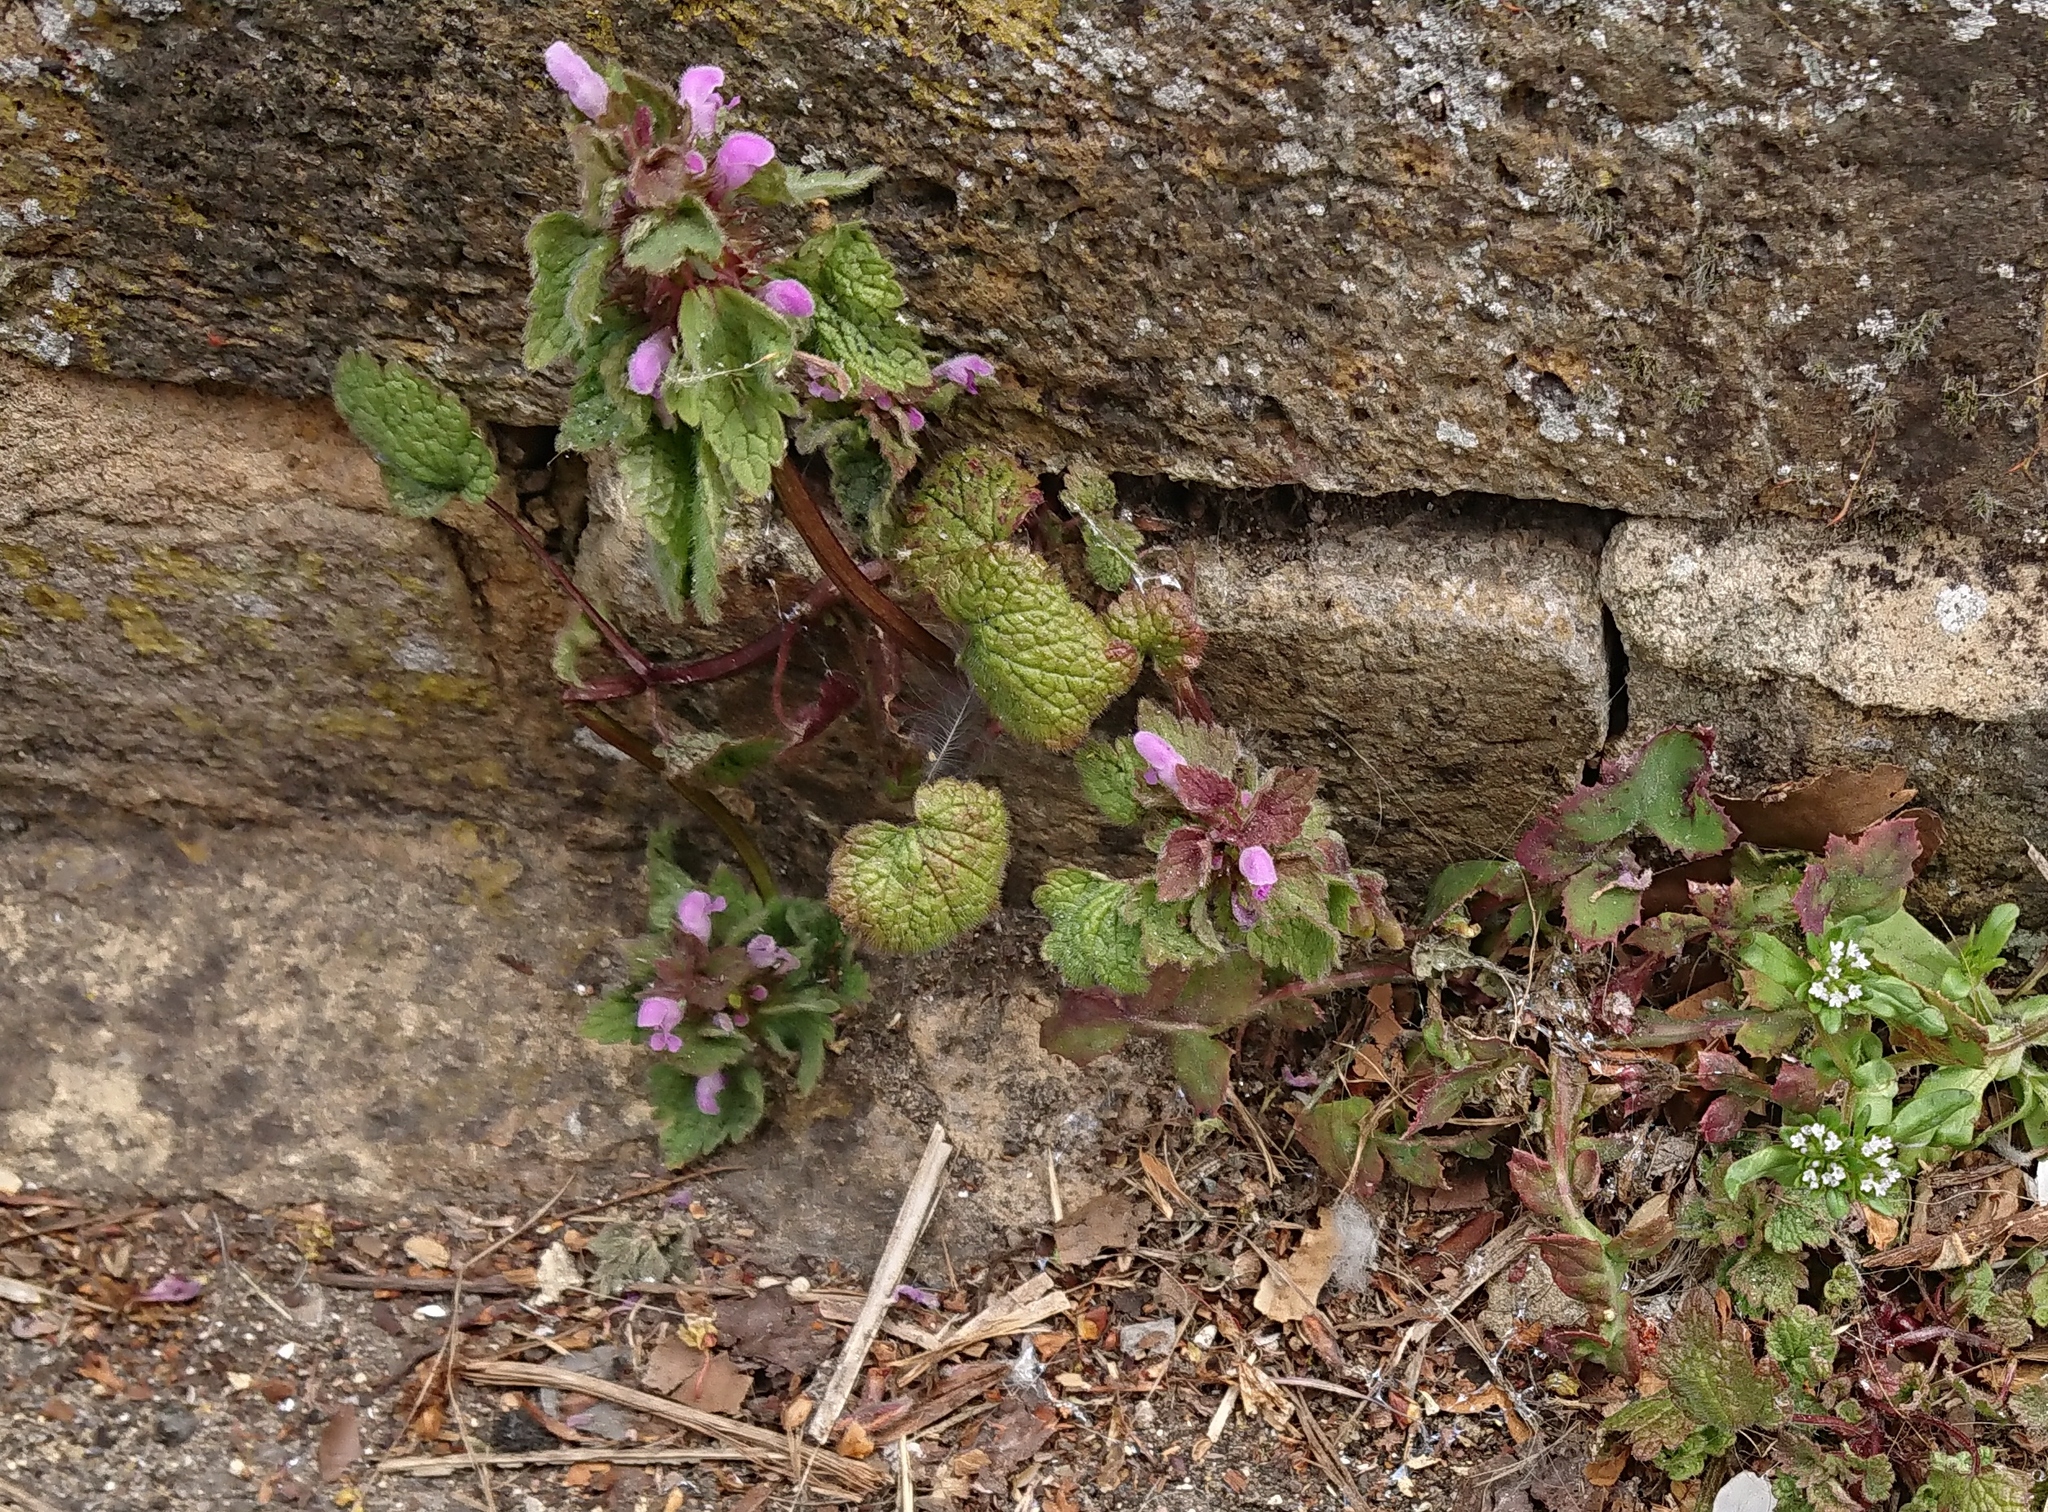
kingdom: Plantae
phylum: Tracheophyta
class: Magnoliopsida
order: Lamiales
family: Lamiaceae
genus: Lamium
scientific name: Lamium purpureum
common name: Red dead-nettle
